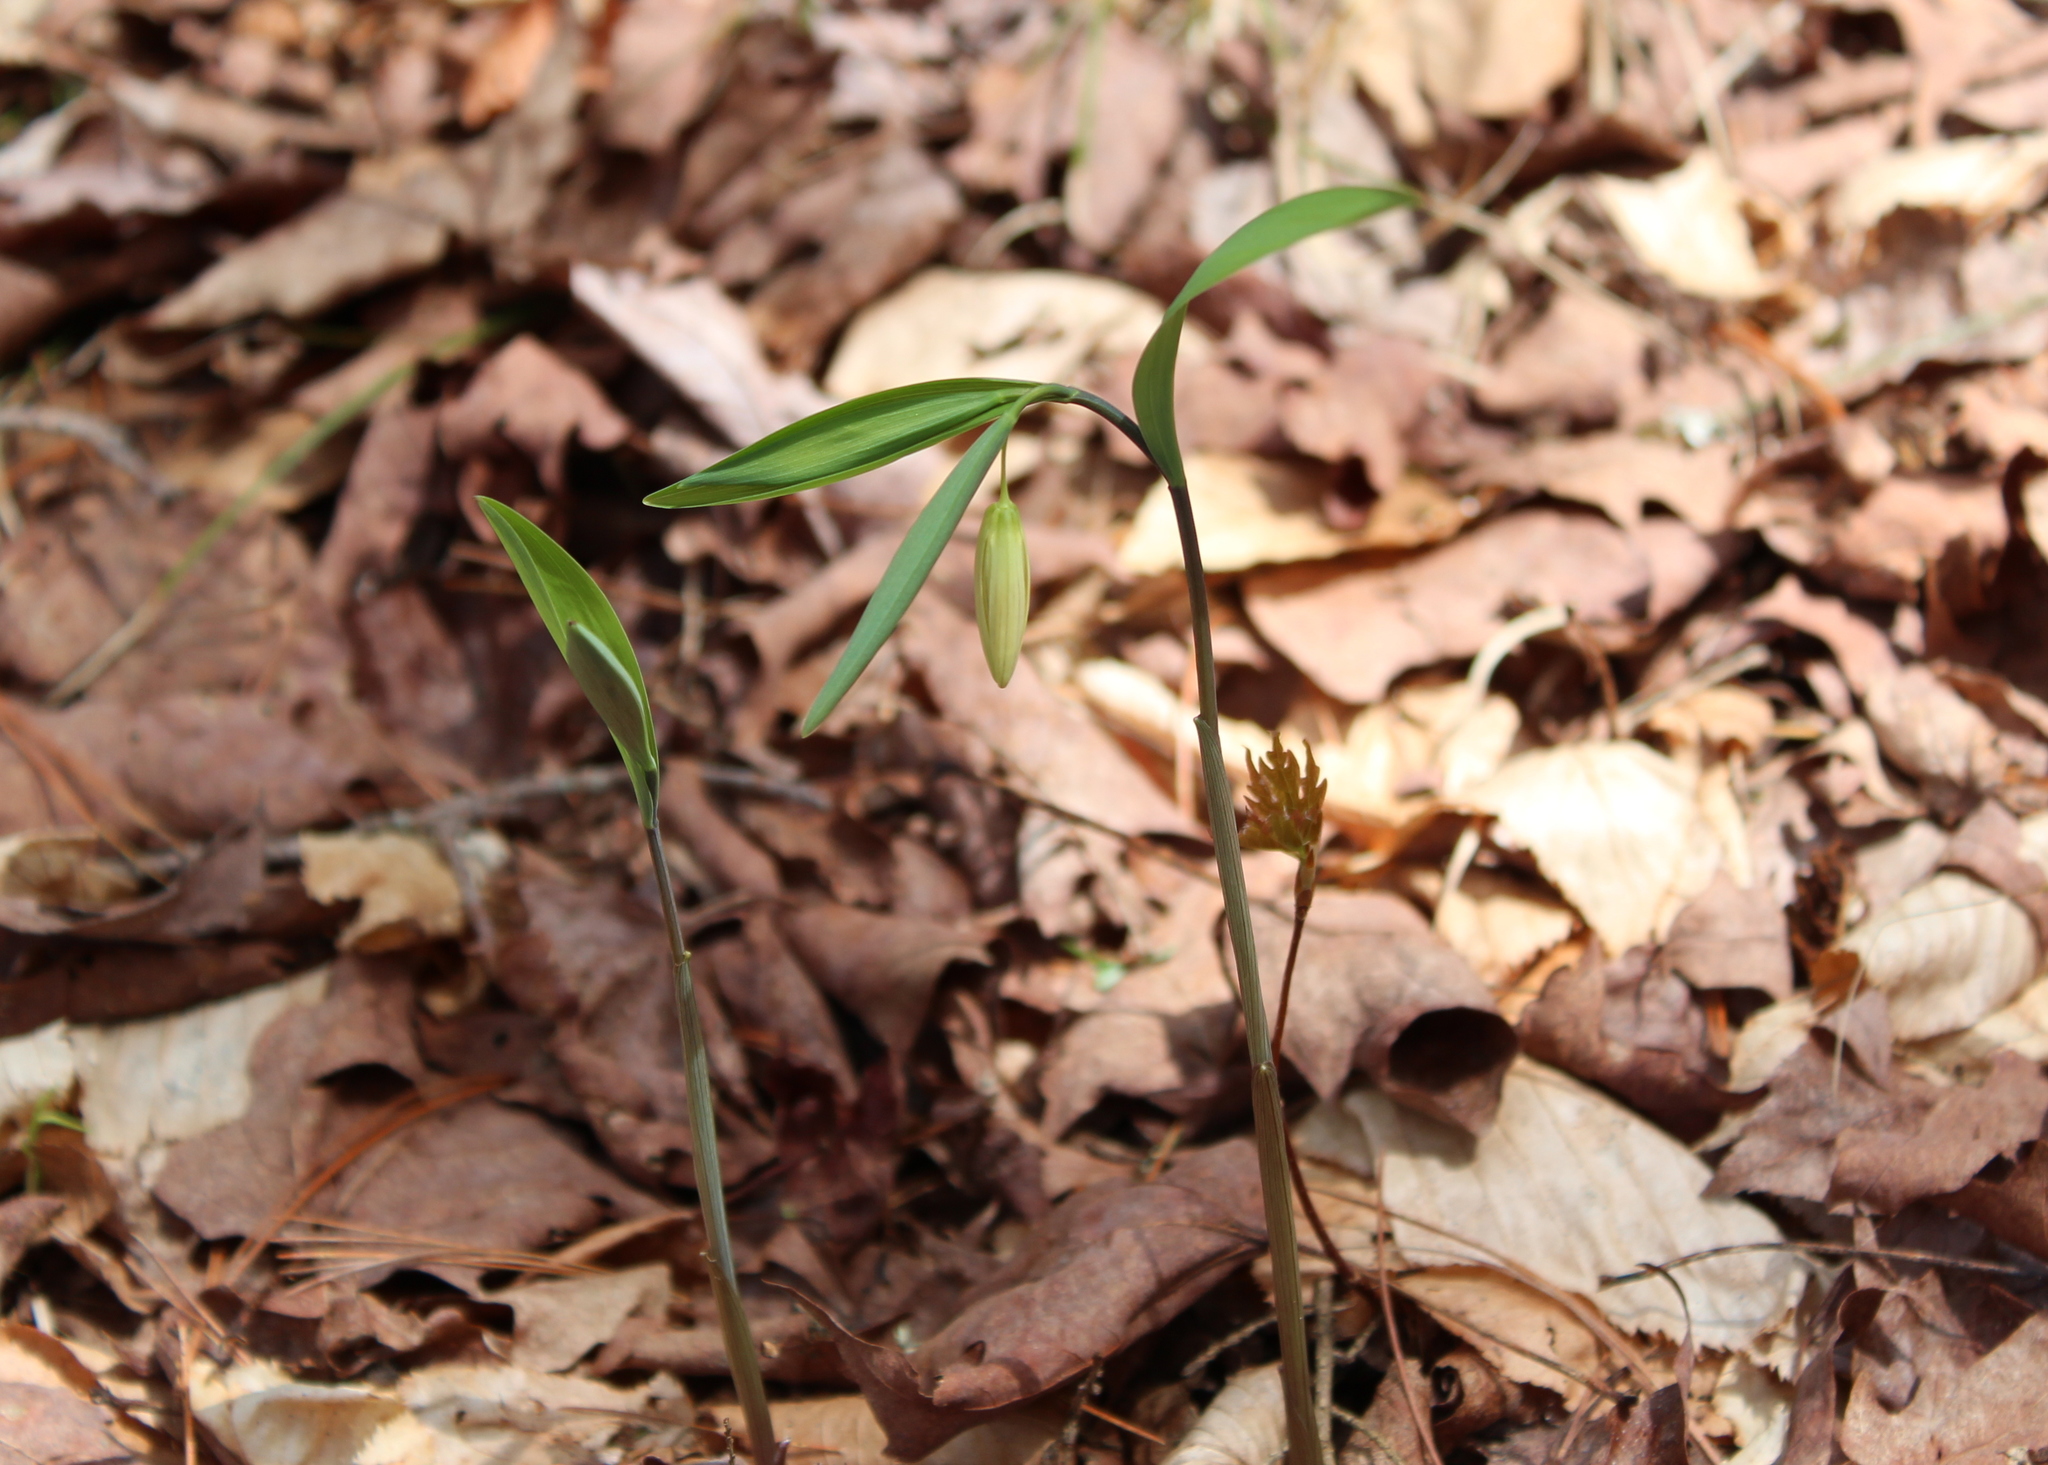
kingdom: Plantae
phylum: Tracheophyta
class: Liliopsida
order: Liliales
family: Colchicaceae
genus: Uvularia
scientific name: Uvularia sessilifolia
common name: Straw-lily
